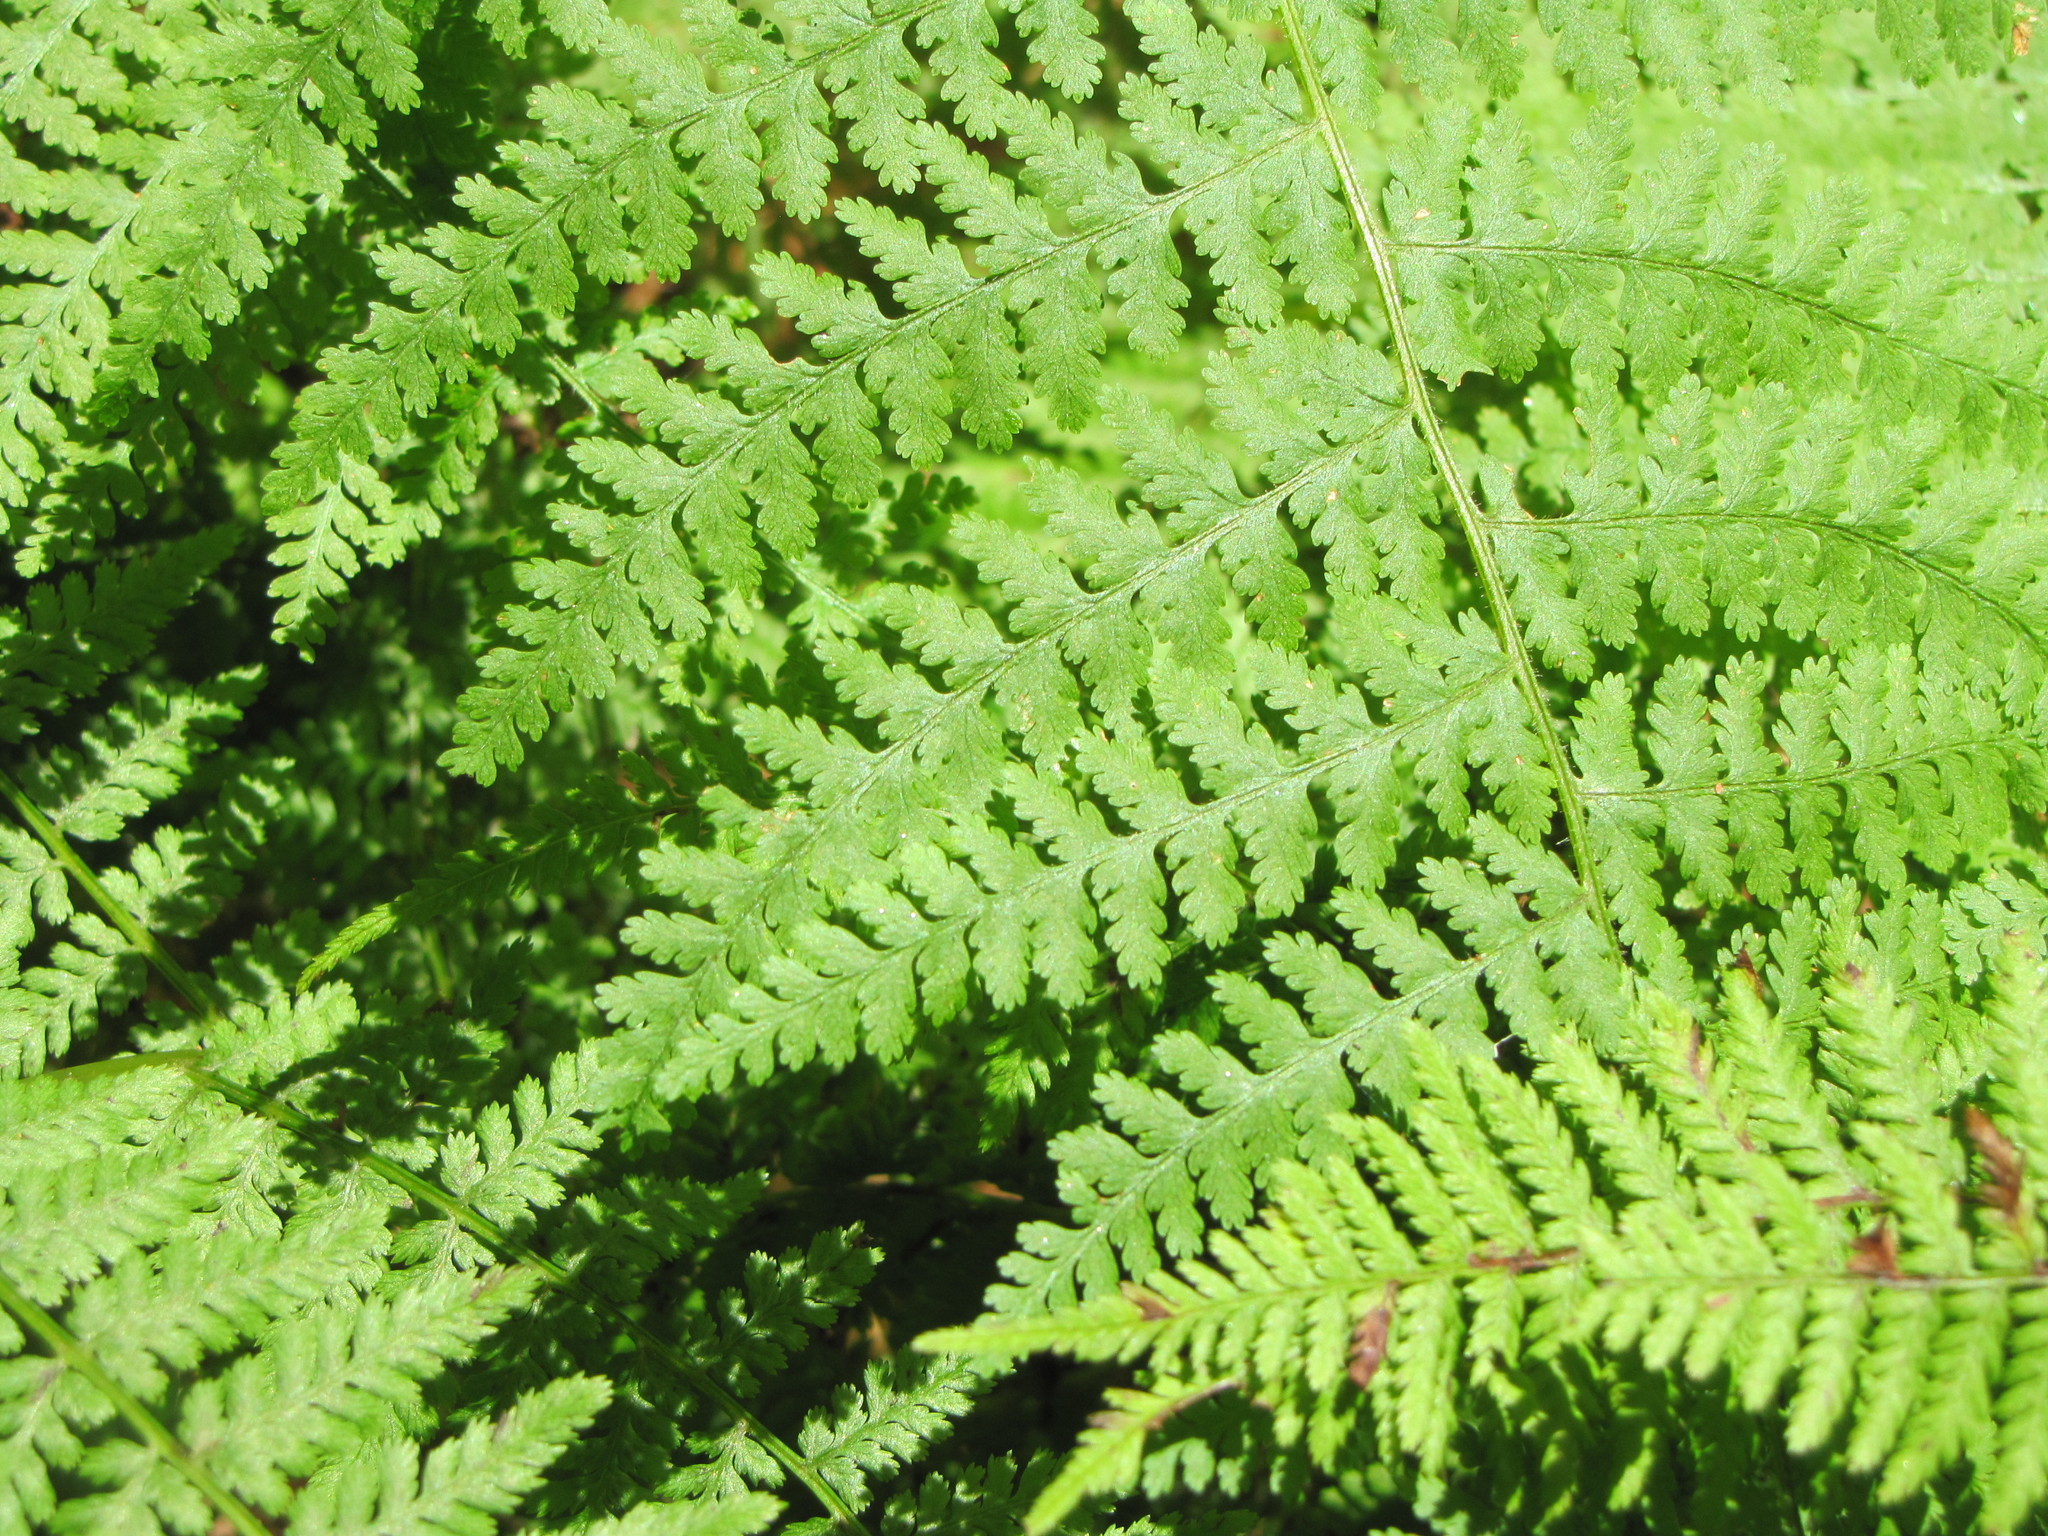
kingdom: Plantae
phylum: Tracheophyta
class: Polypodiopsida
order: Polypodiales
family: Dennstaedtiaceae
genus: Sitobolium
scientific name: Sitobolium punctilobum
